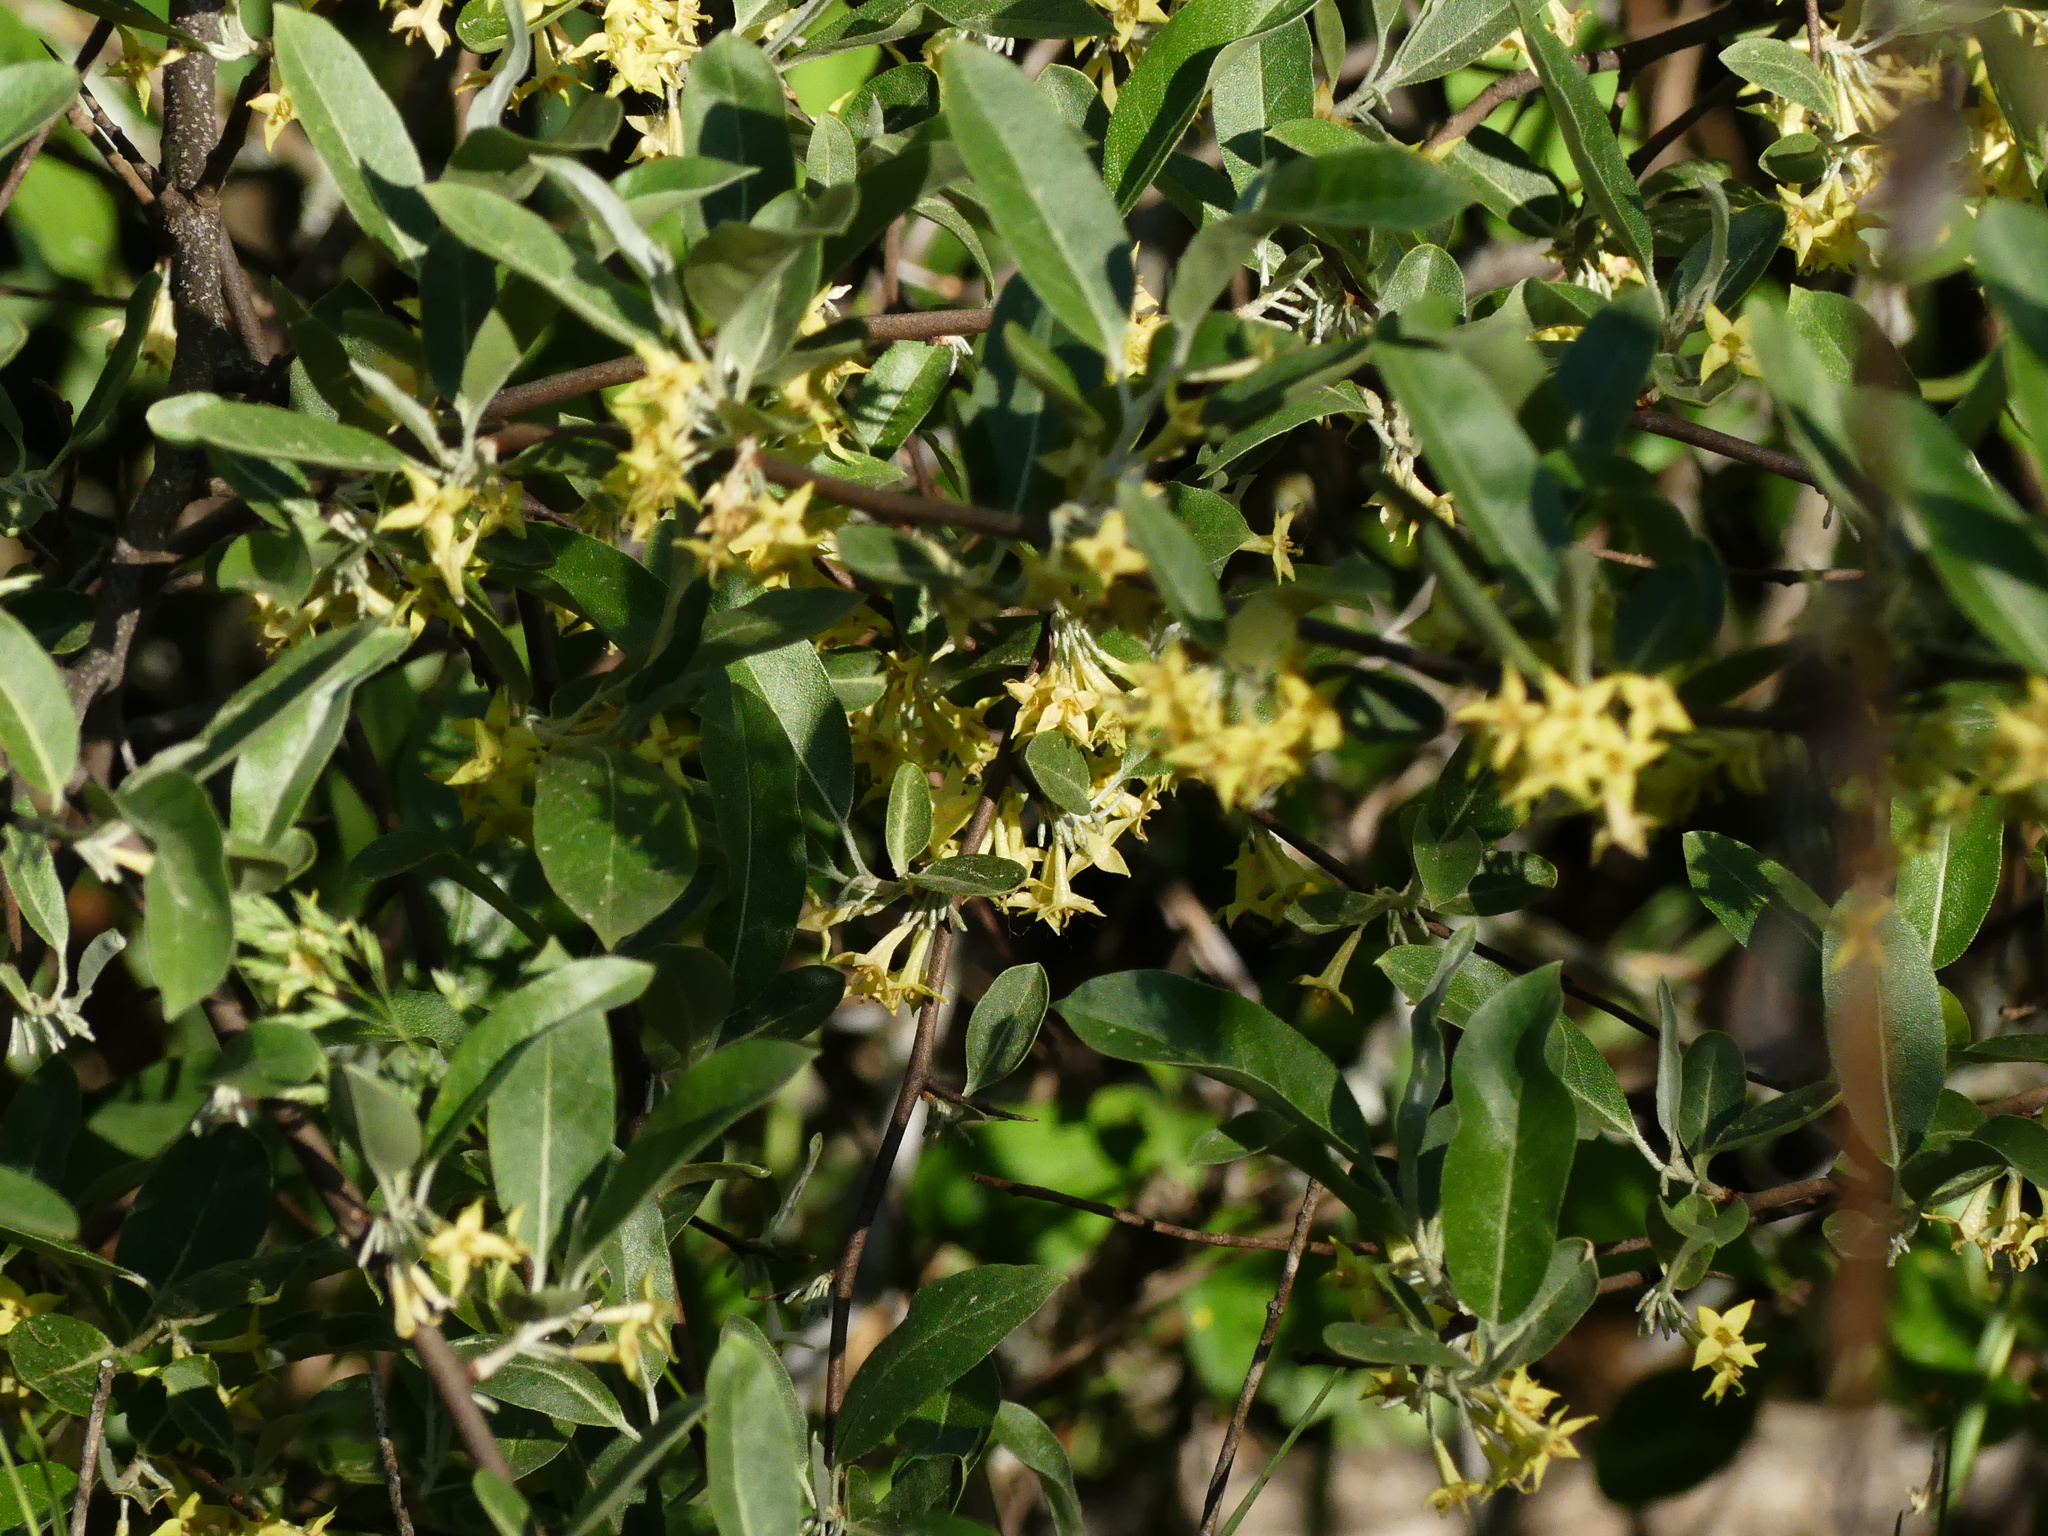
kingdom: Plantae
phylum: Tracheophyta
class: Magnoliopsida
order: Rosales
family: Elaeagnaceae
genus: Elaeagnus
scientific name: Elaeagnus umbellata
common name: Autumn olive
